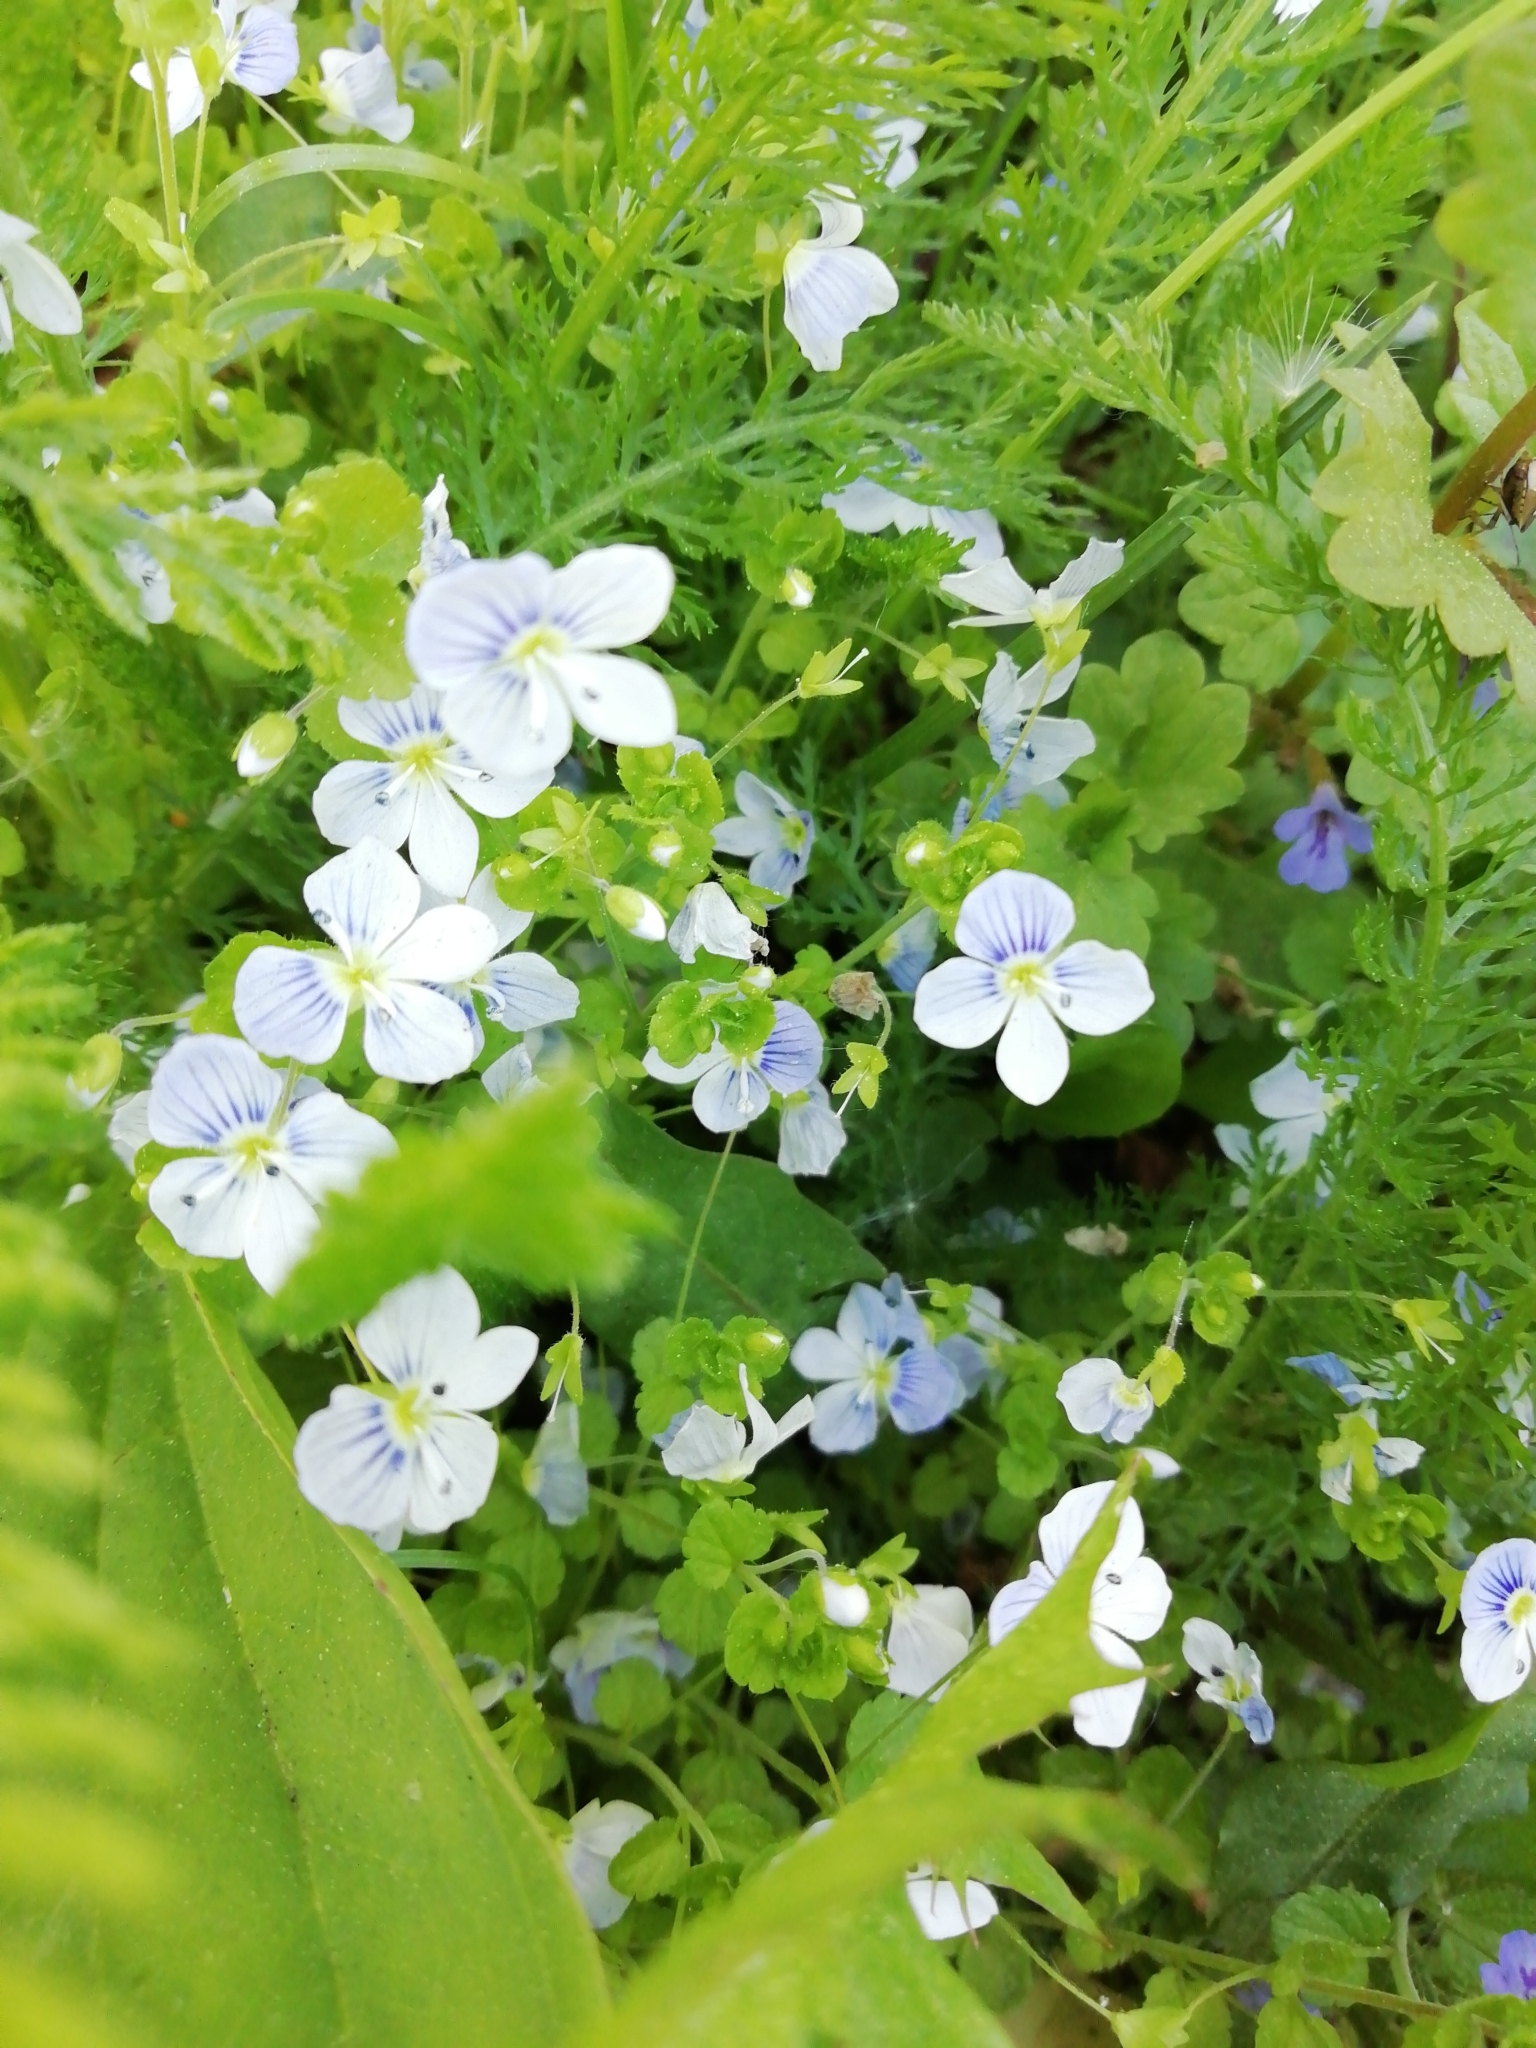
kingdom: Plantae
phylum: Tracheophyta
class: Magnoliopsida
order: Lamiales
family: Plantaginaceae
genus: Veronica
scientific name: Veronica filiformis
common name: Slender speedwell
